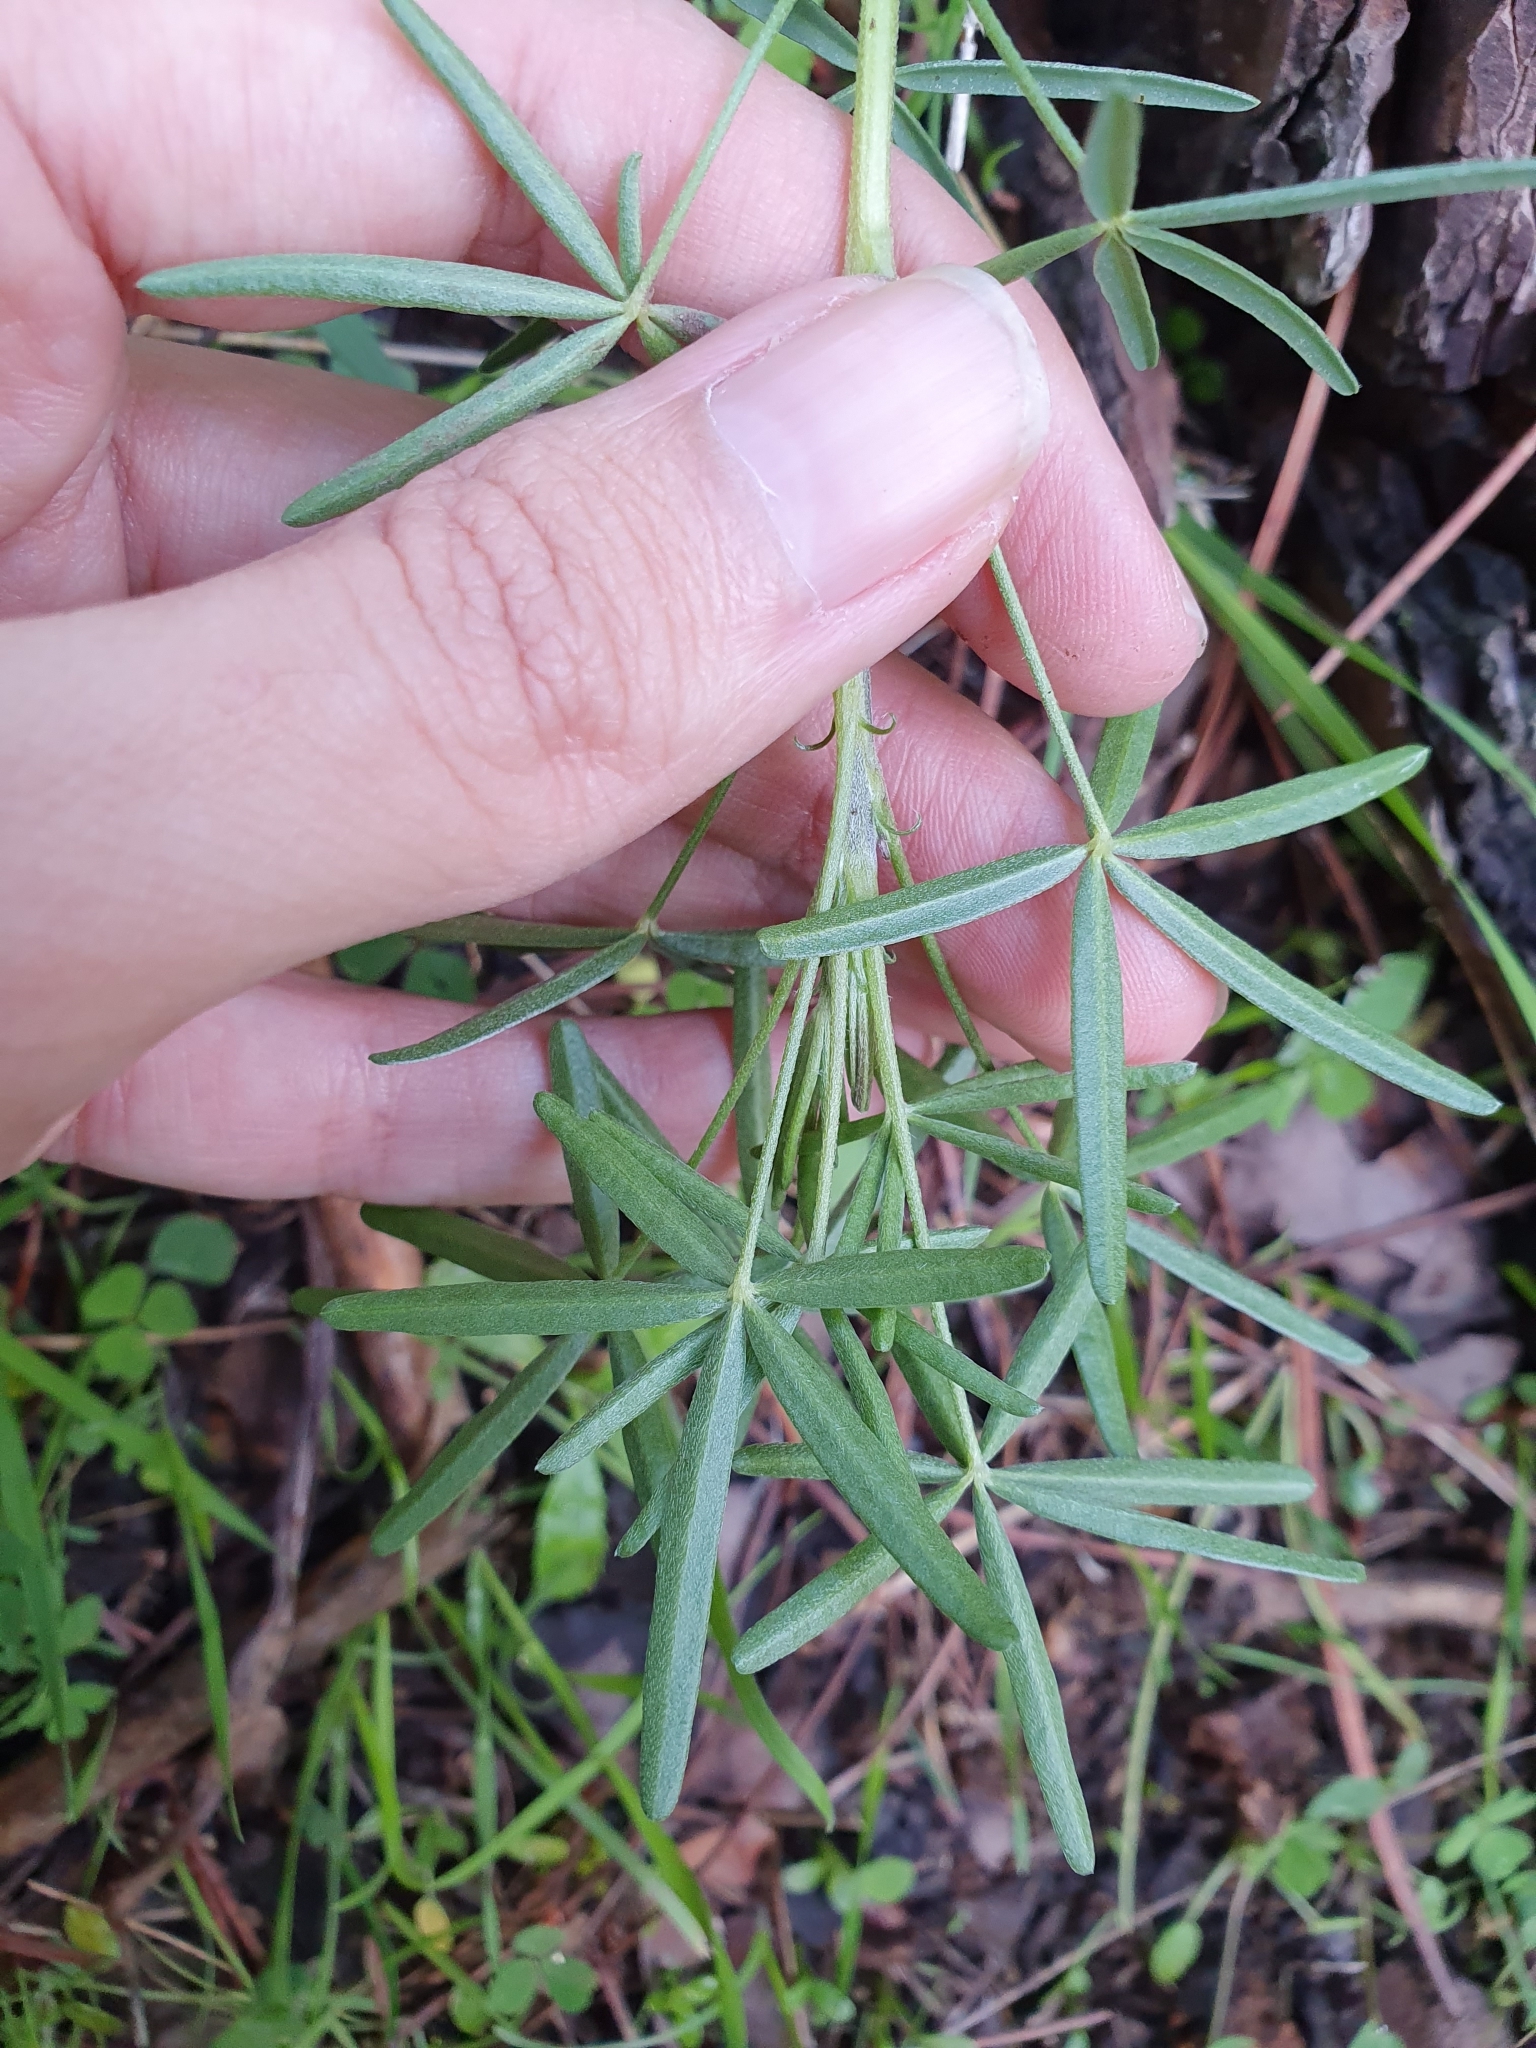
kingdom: Plantae
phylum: Tracheophyta
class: Magnoliopsida
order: Fabales
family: Fabaceae
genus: Lupinus
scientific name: Lupinus angustifolius
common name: Narrow-leaved lupin
